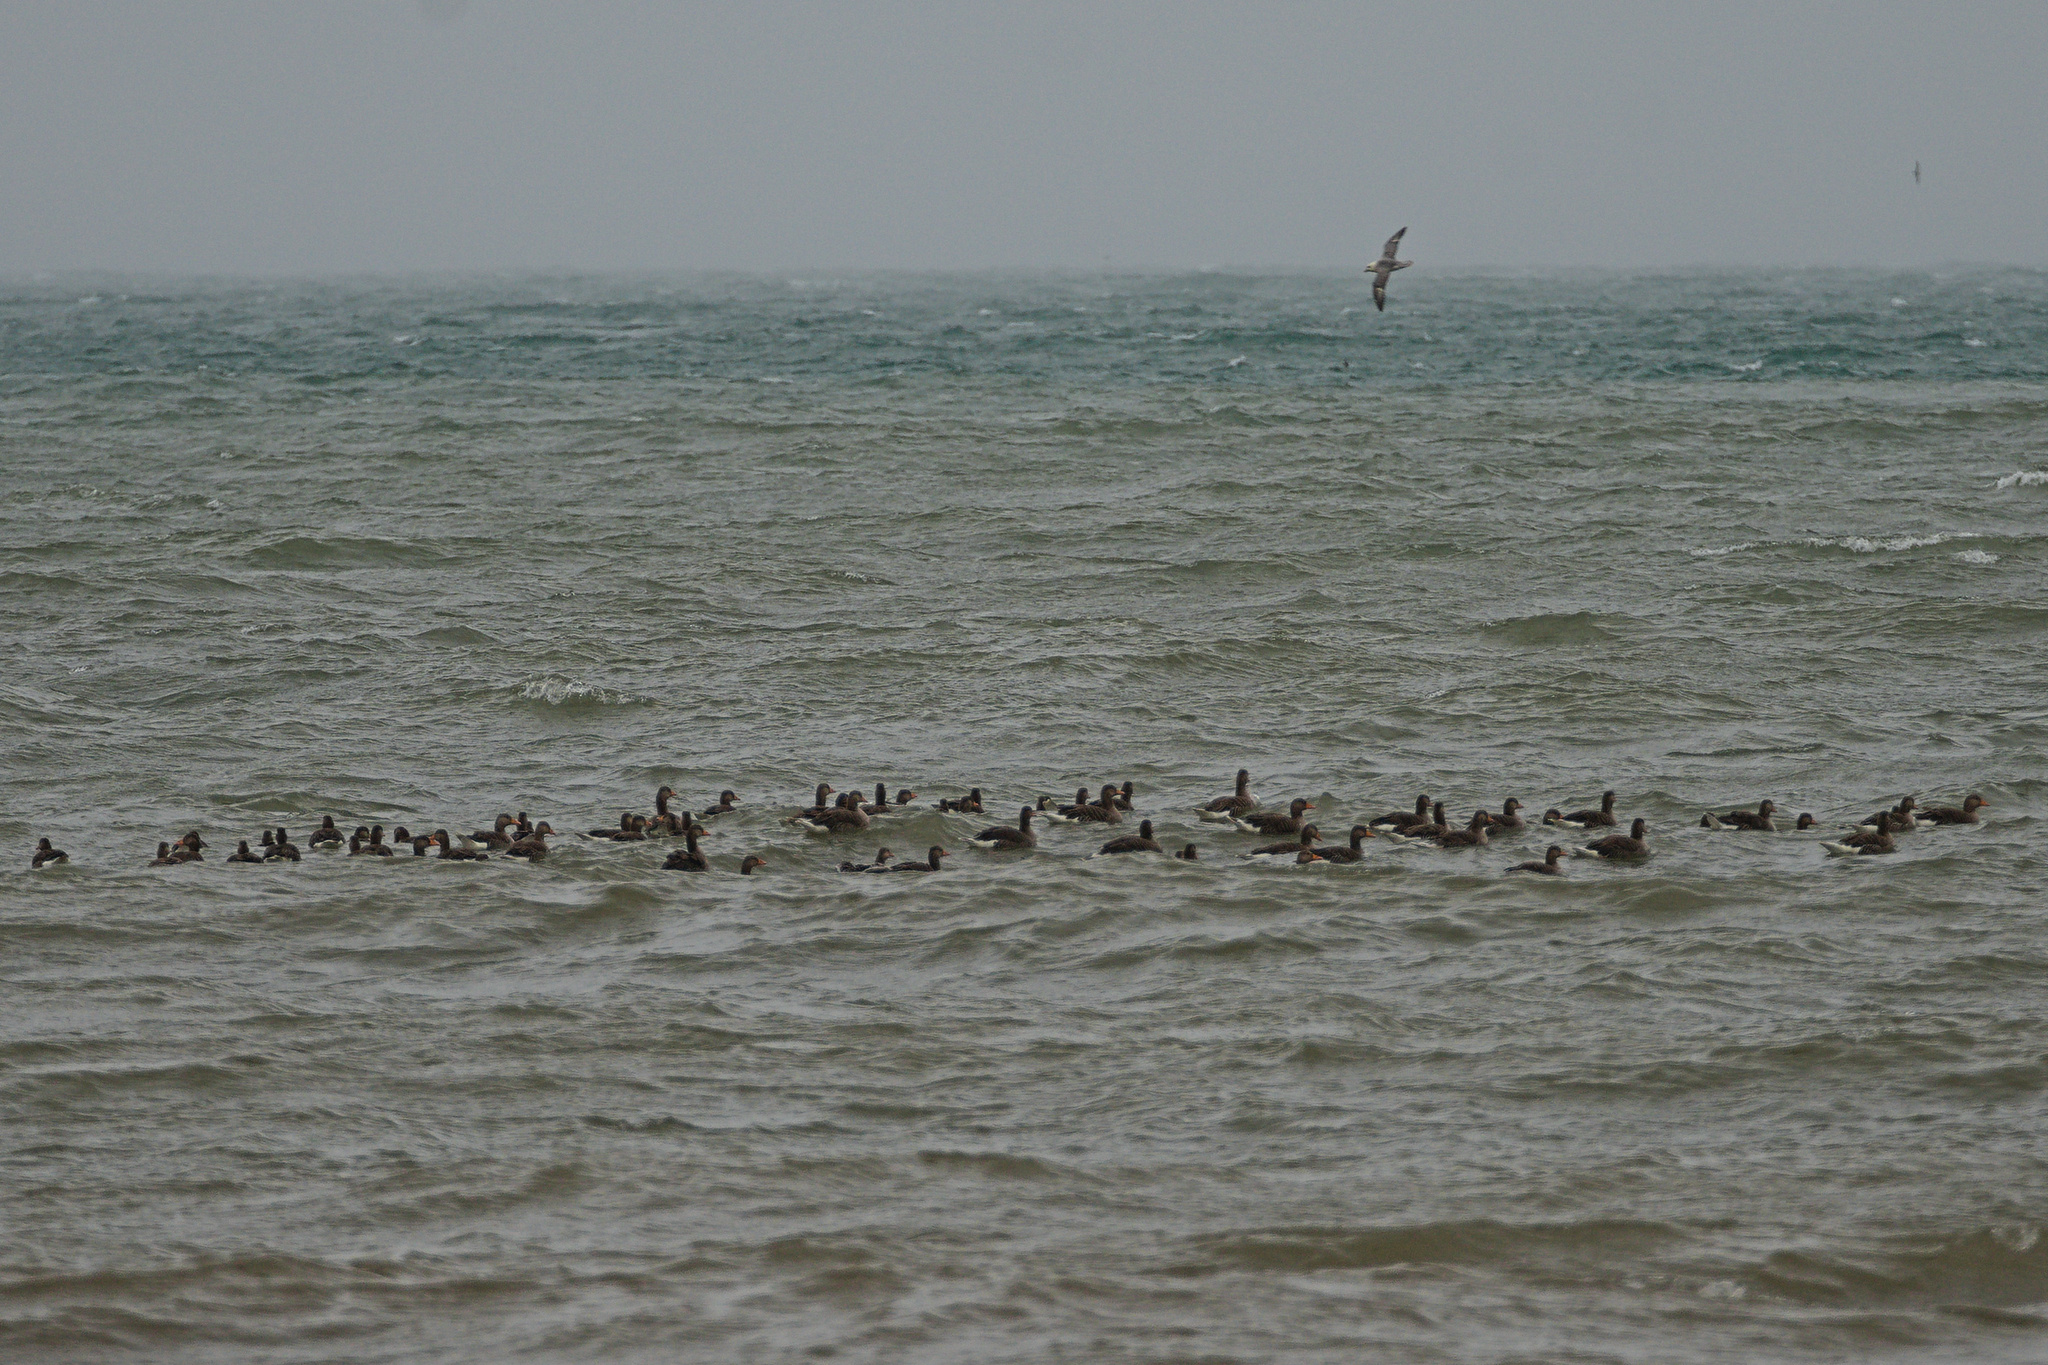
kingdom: Animalia
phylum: Chordata
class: Aves
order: Anseriformes
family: Anatidae
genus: Anser
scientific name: Anser anser
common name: Greylag goose
